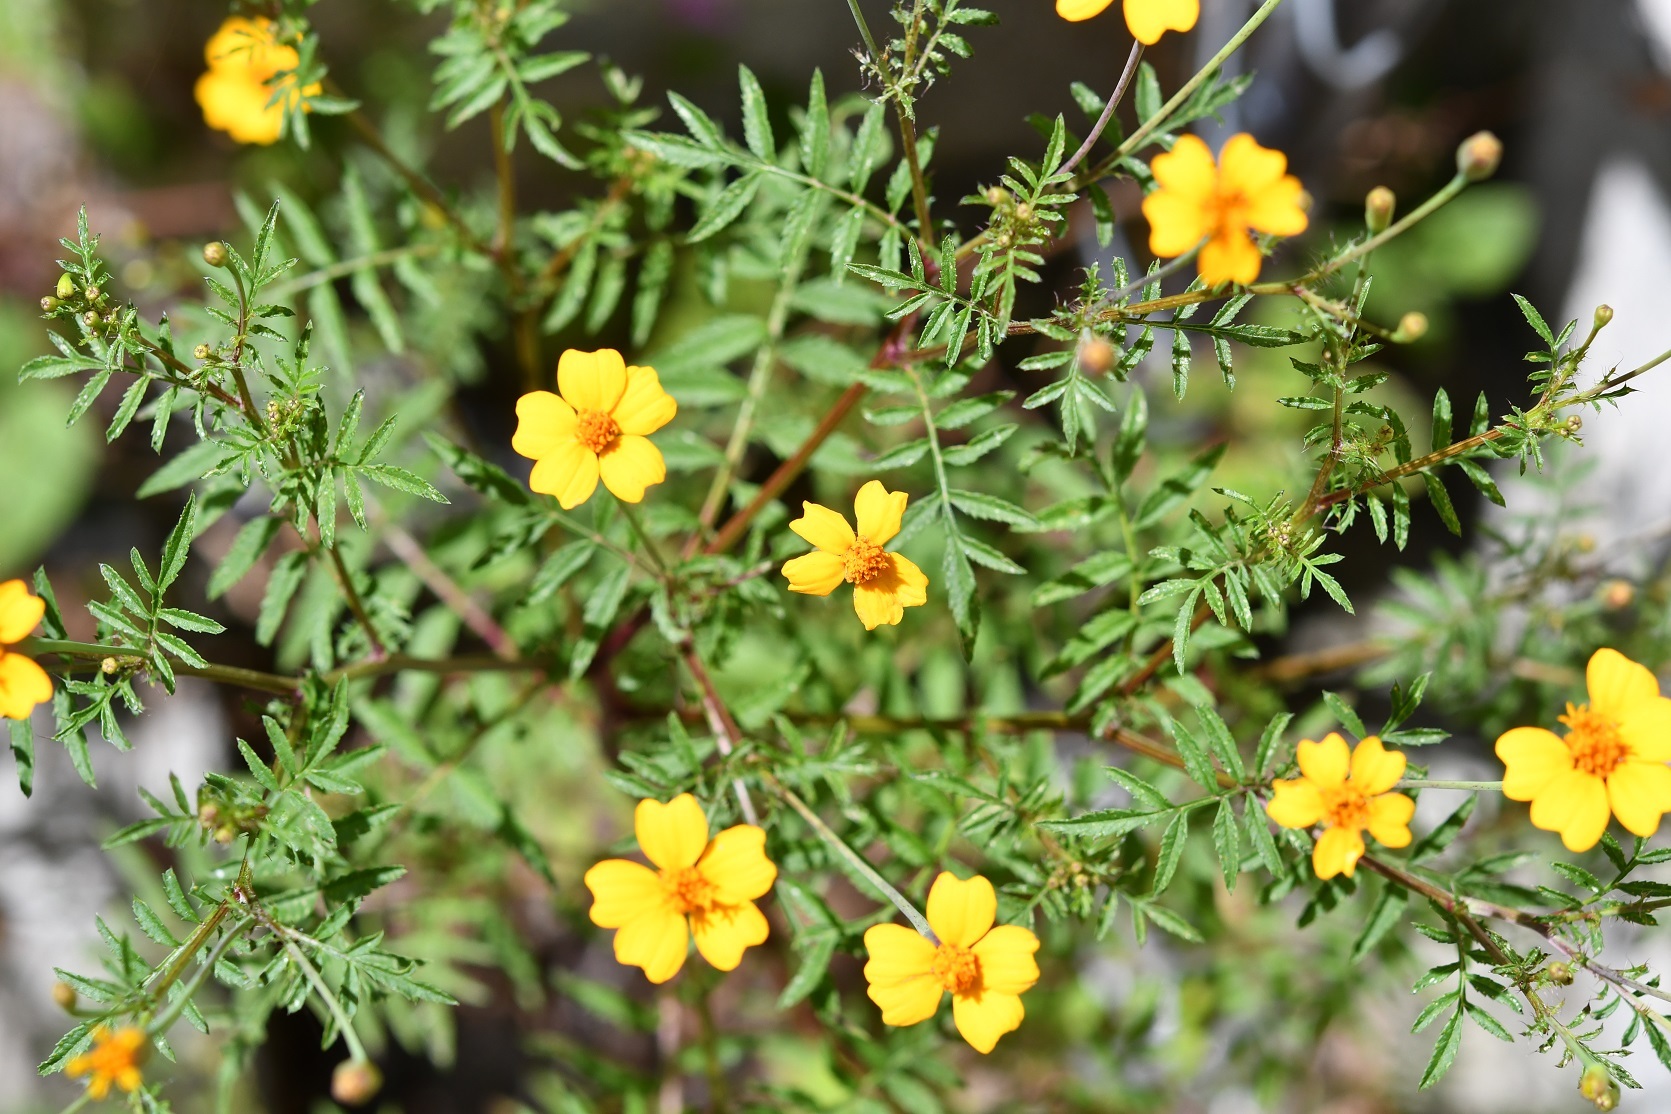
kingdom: Plantae
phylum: Tracheophyta
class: Magnoliopsida
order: Asterales
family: Asteraceae
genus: Tagetes
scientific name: Tagetes tenuifolia
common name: Signet marigold
